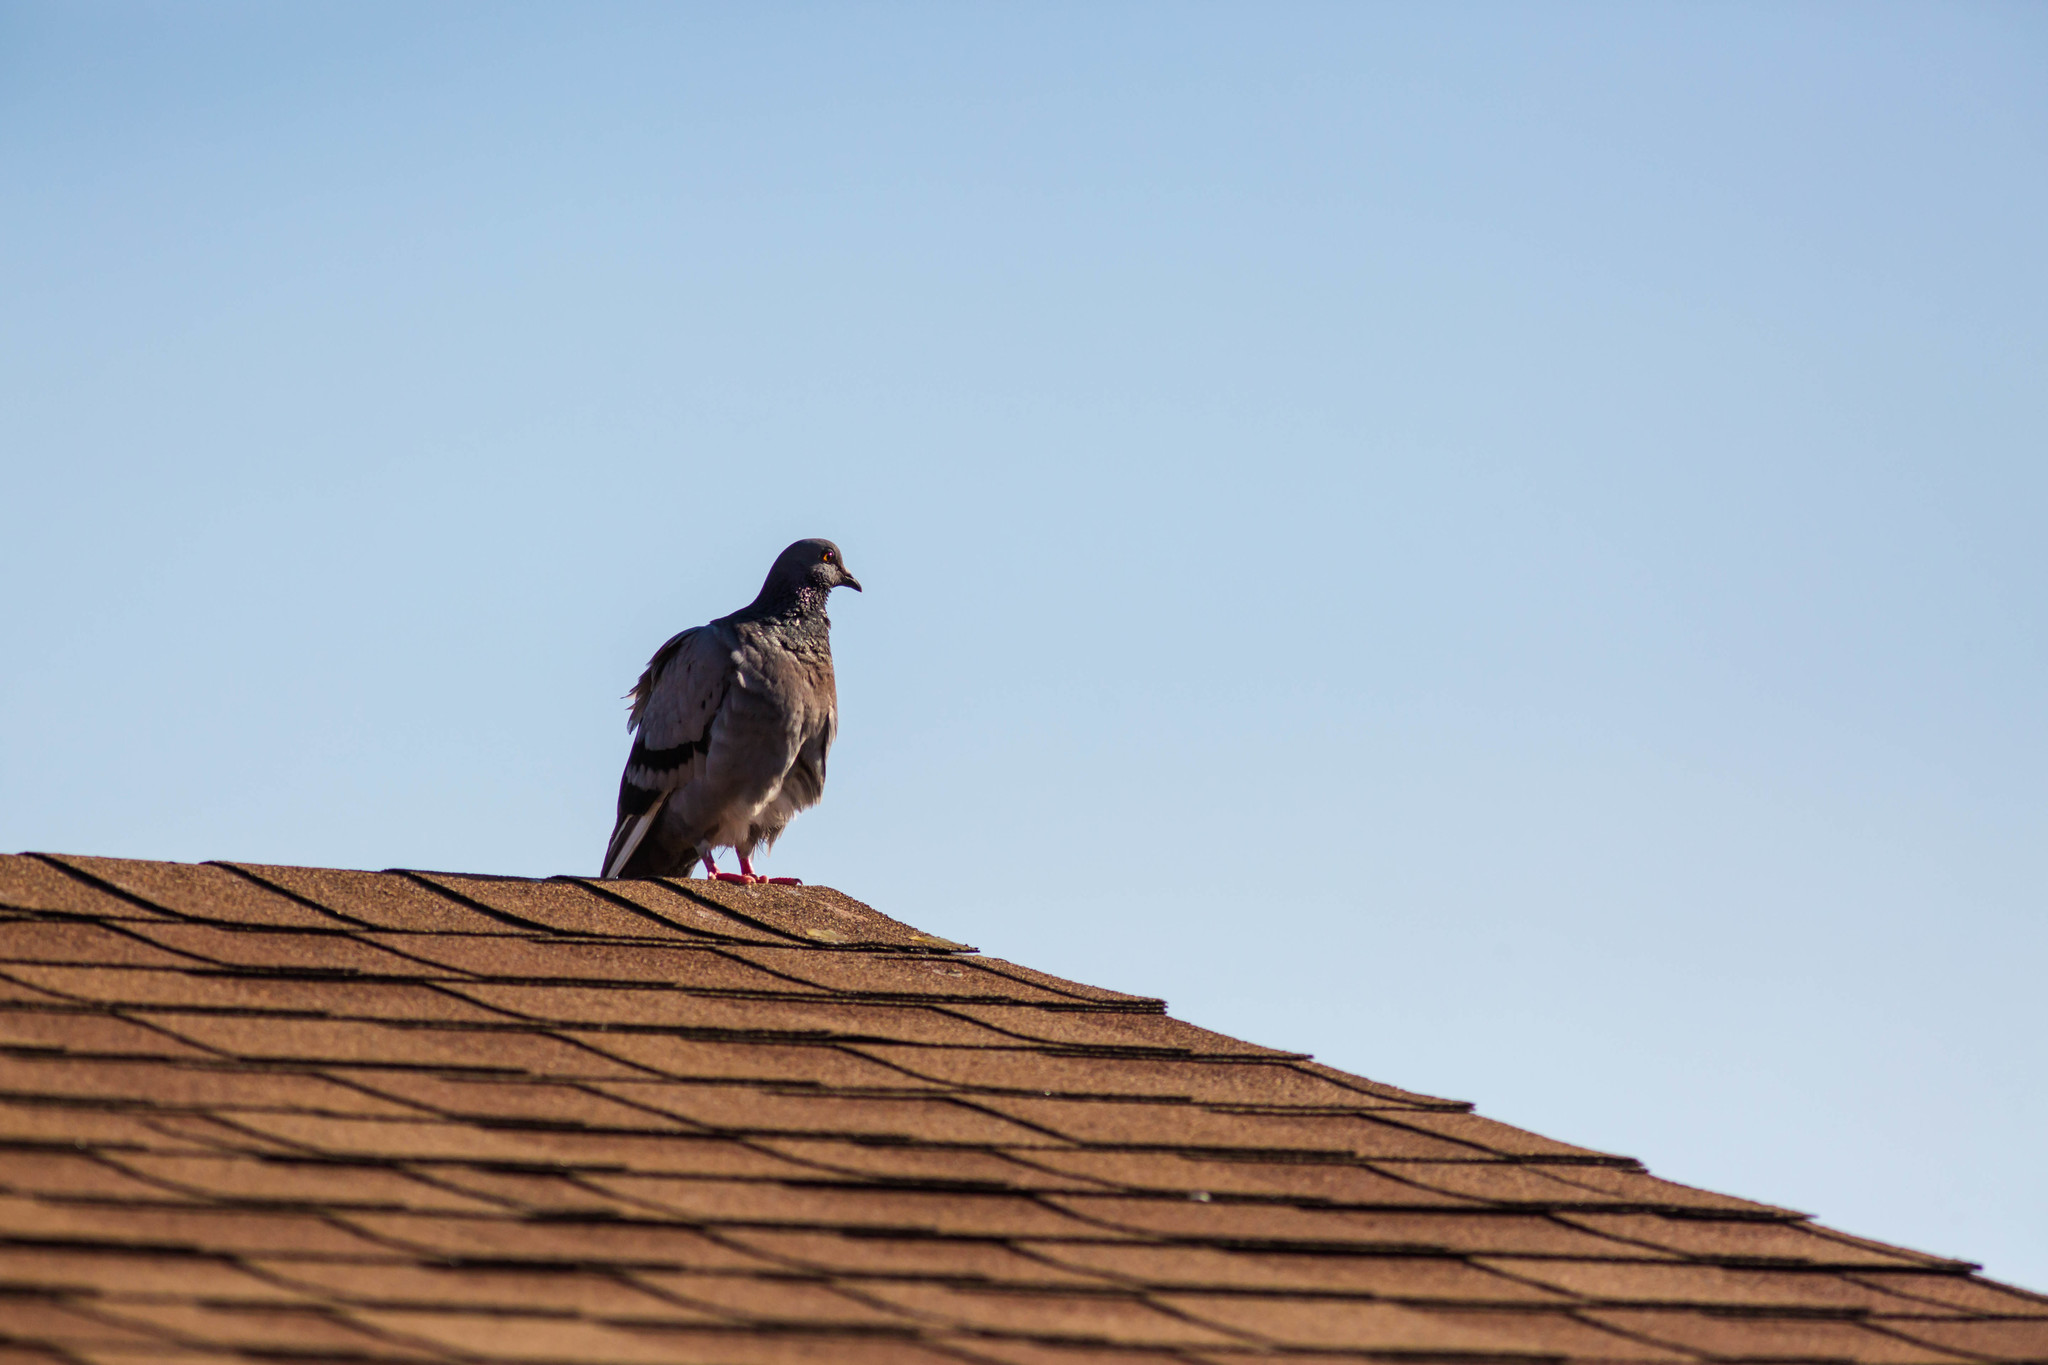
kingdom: Animalia
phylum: Chordata
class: Aves
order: Columbiformes
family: Columbidae
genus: Columba
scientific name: Columba livia
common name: Rock pigeon
